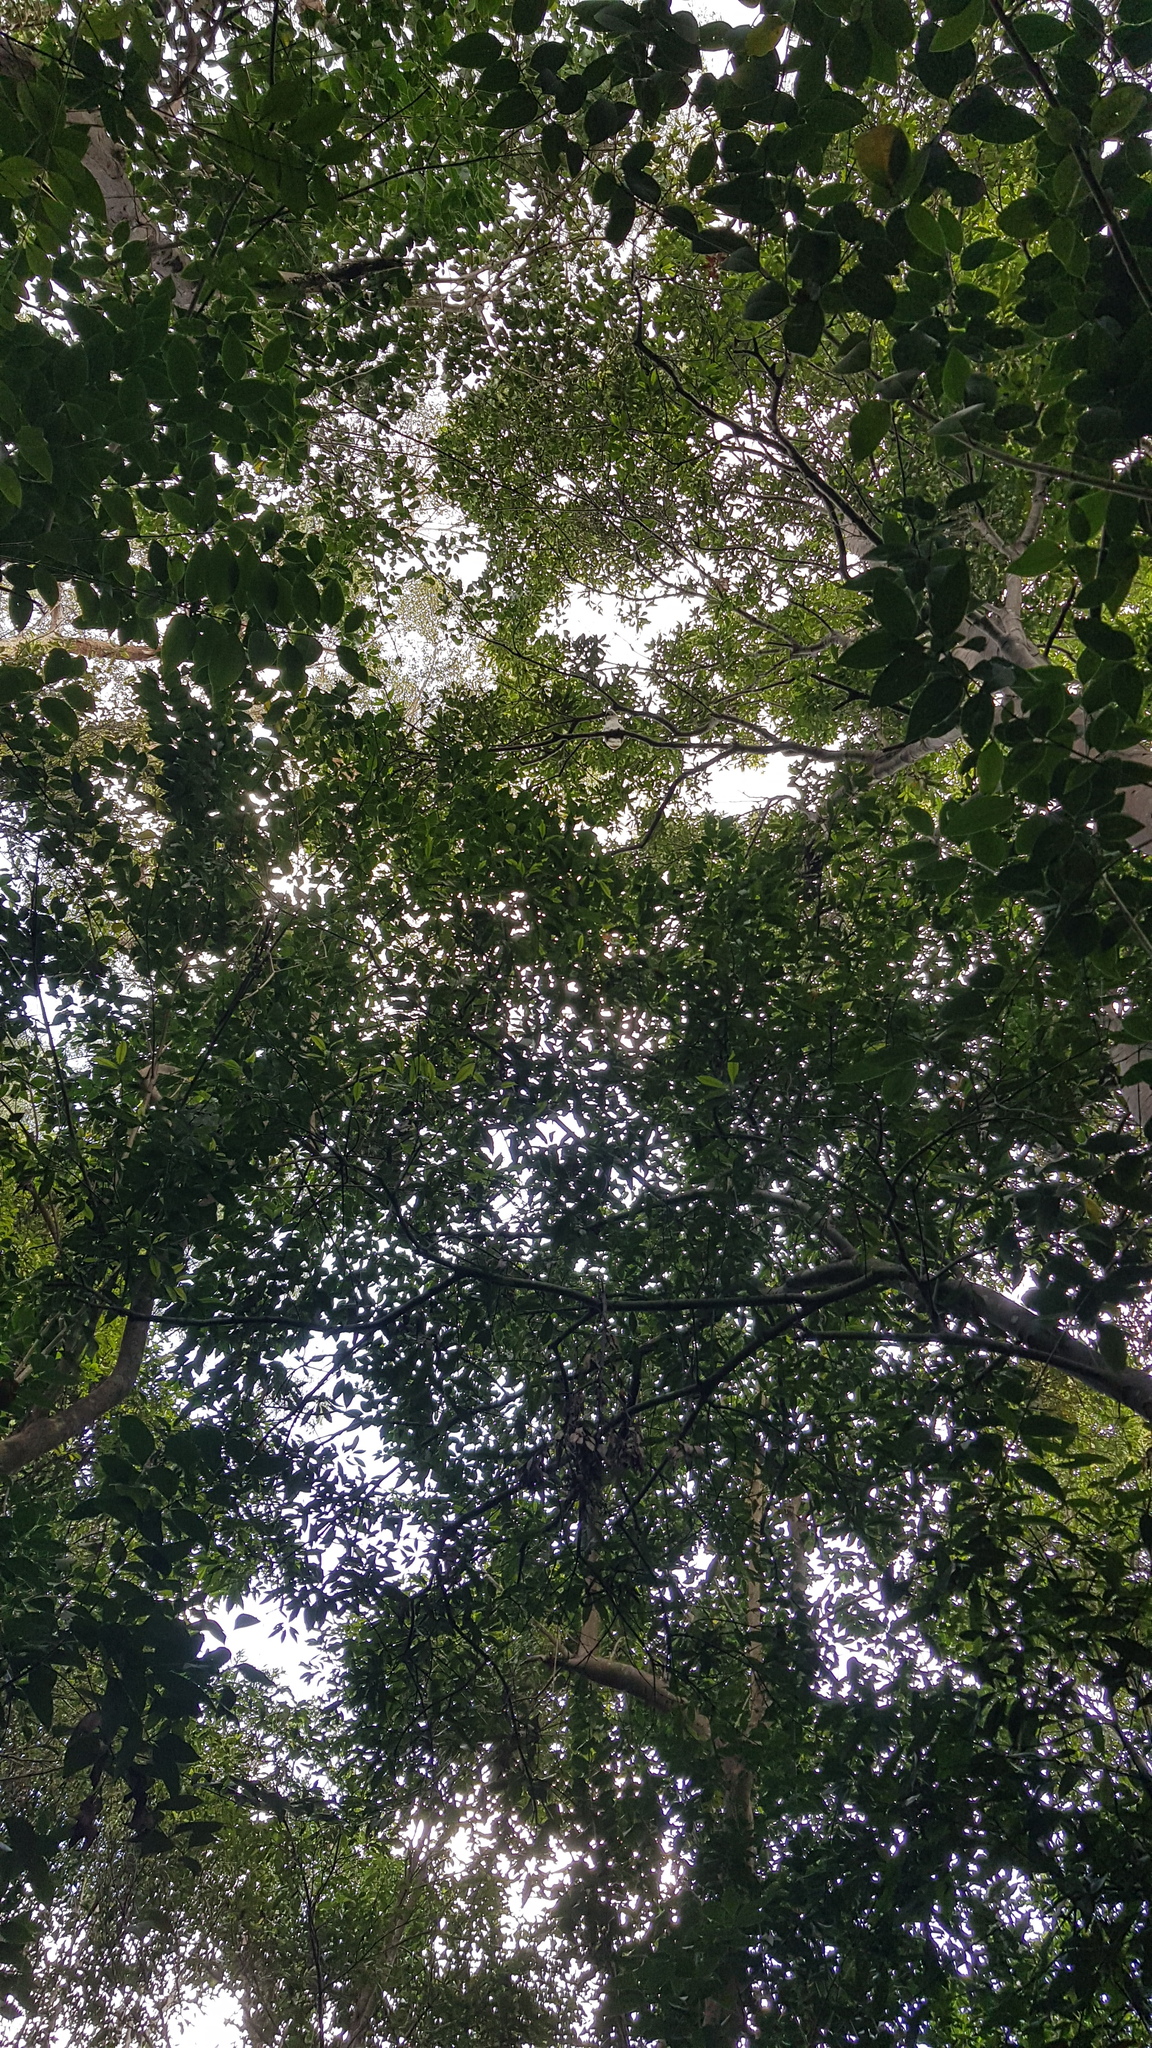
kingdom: Animalia
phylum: Chordata
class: Aves
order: Psittaciformes
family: Psittacidae
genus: Cacatua
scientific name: Cacatua galerita
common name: Sulphur-crested cockatoo
